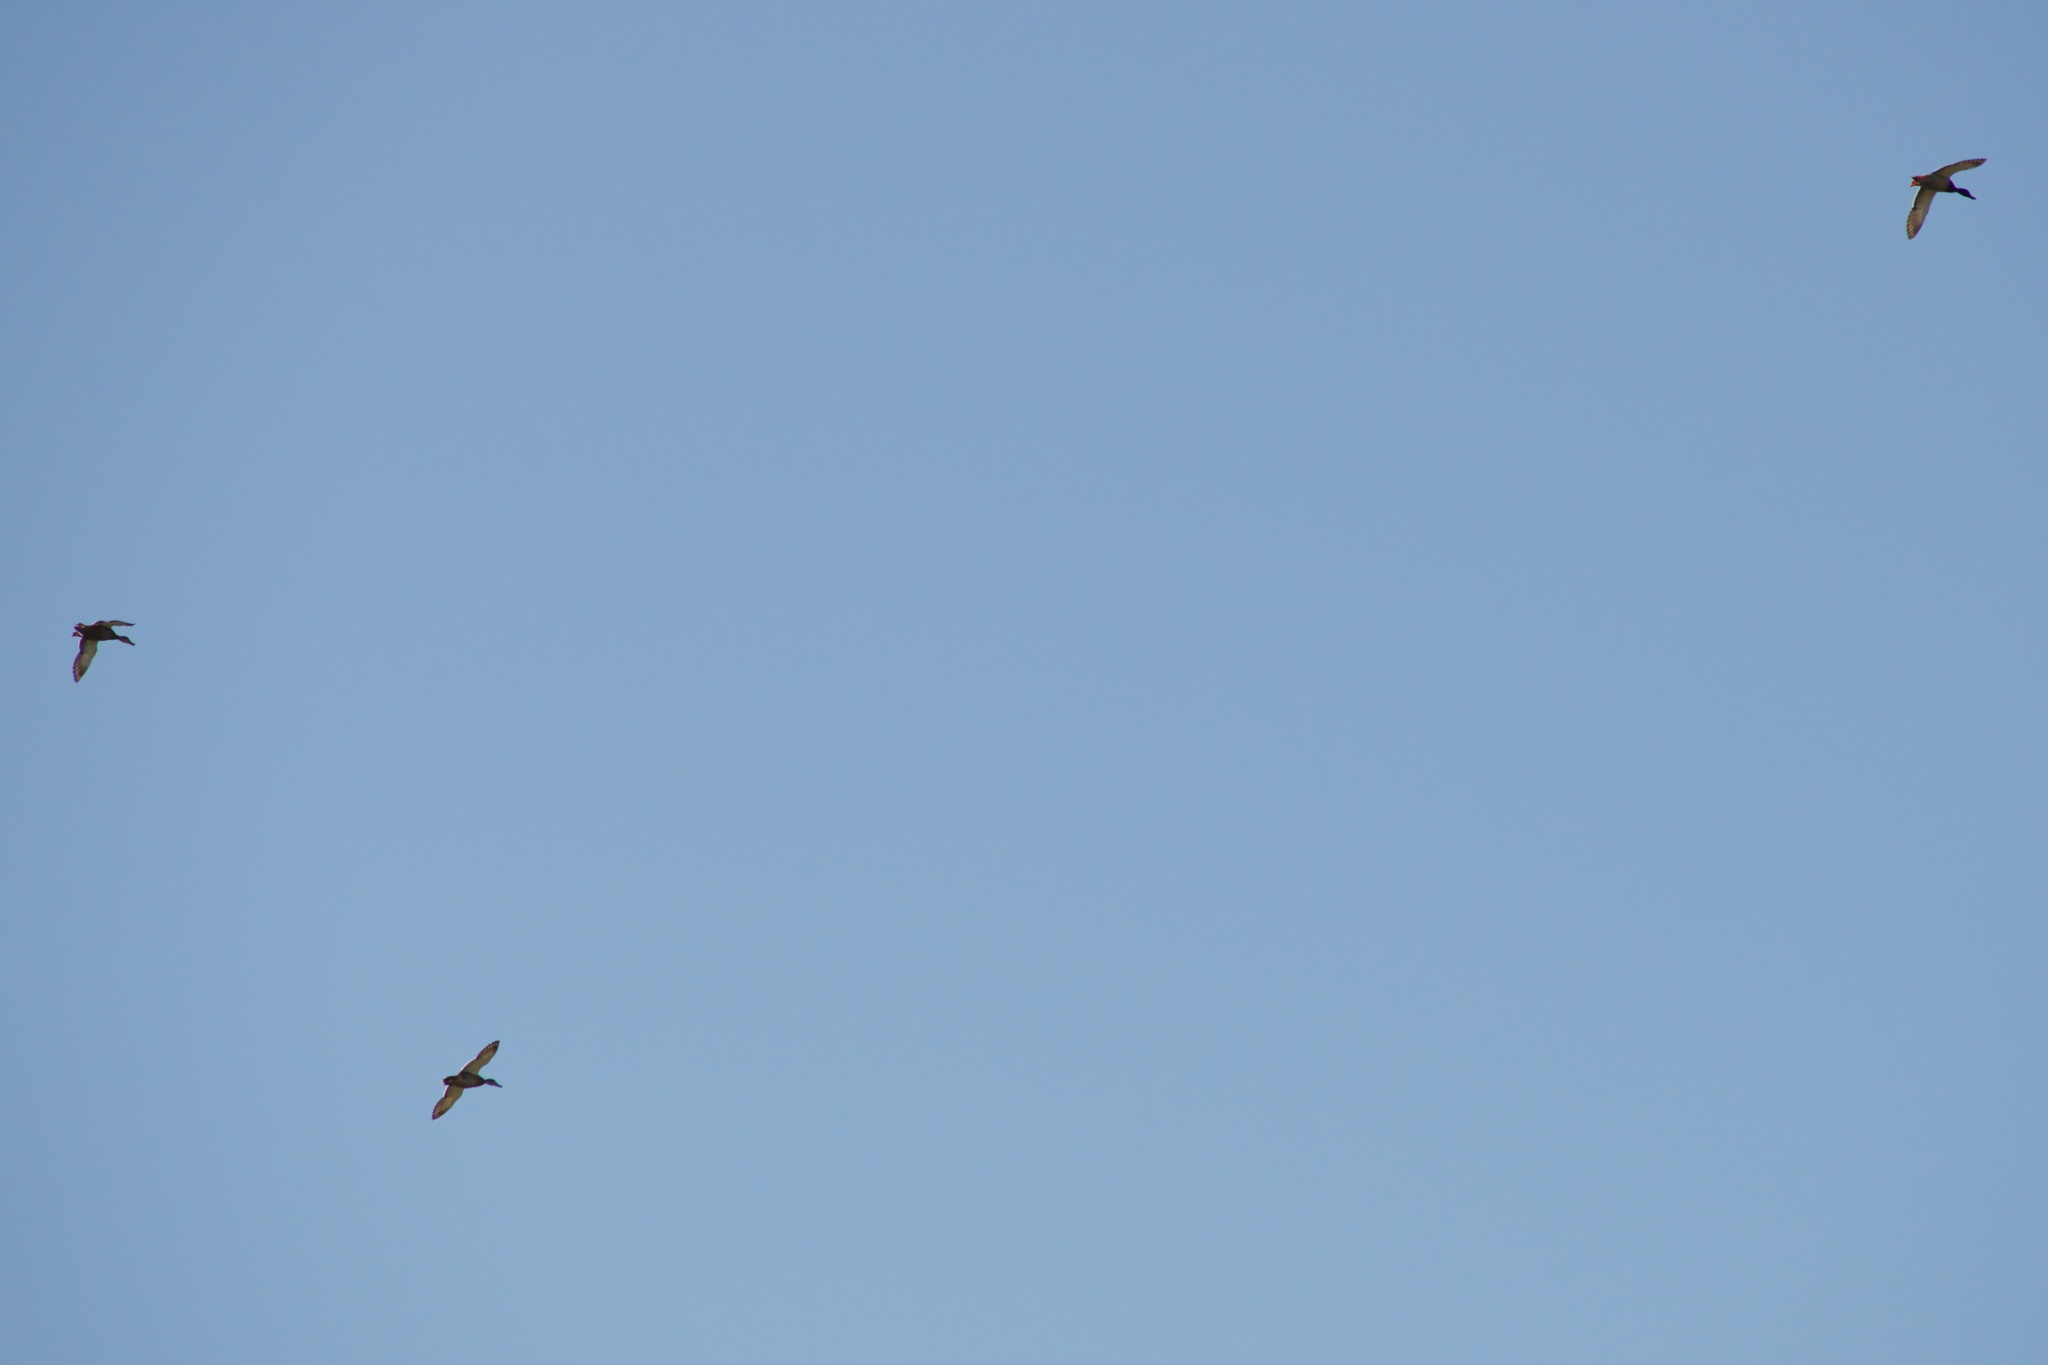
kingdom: Animalia
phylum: Chordata
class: Aves
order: Anseriformes
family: Anatidae
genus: Anas
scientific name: Anas
